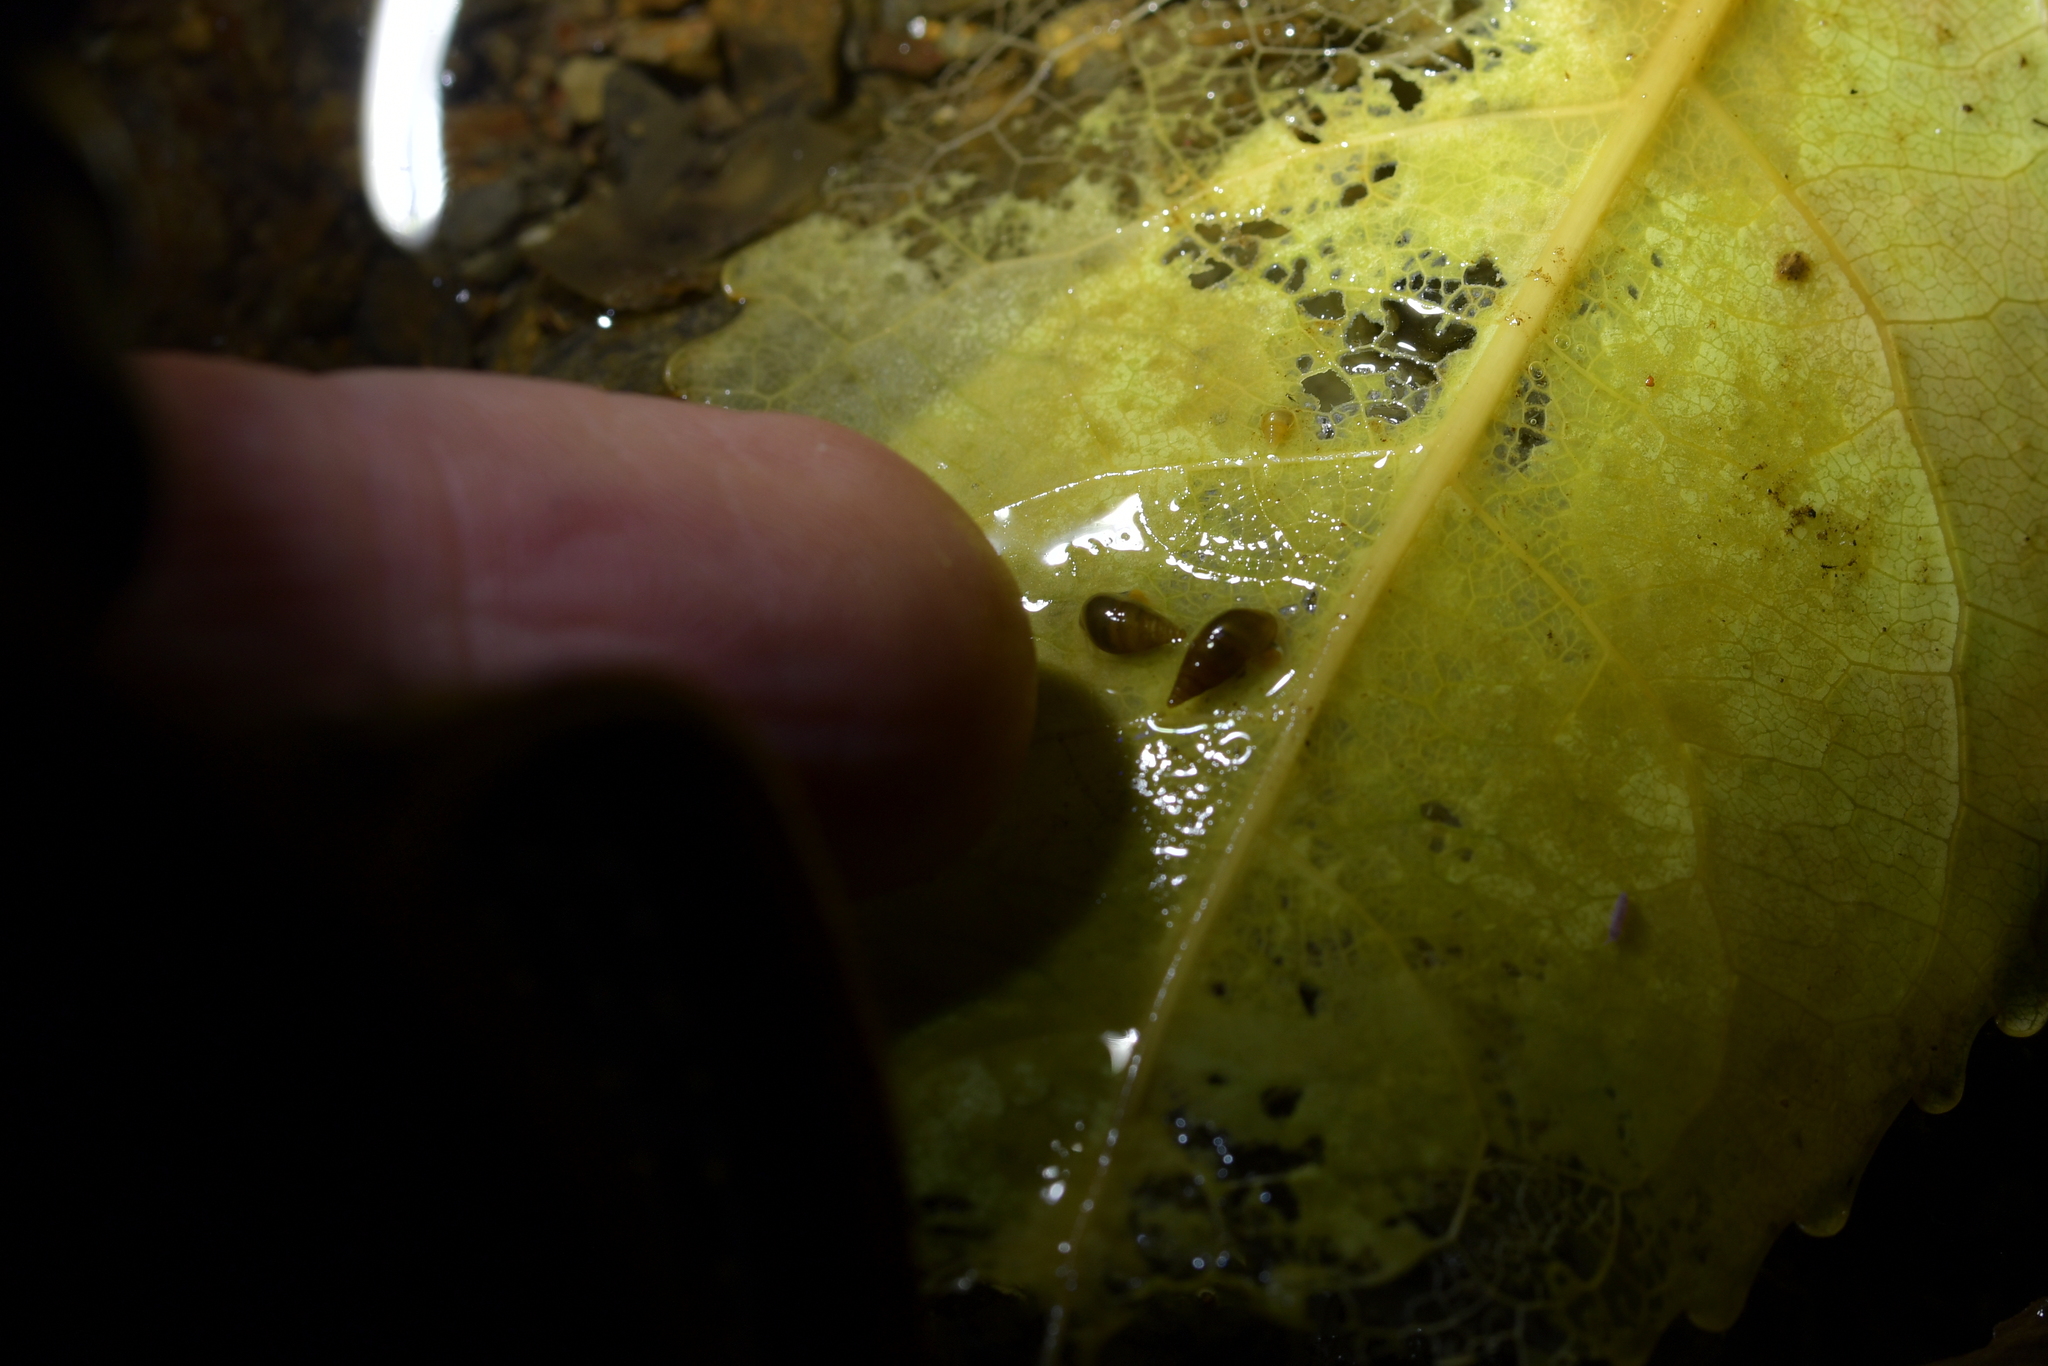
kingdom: Animalia
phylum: Mollusca
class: Gastropoda
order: Littorinimorpha
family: Tateidae
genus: Potamopyrgus
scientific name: Potamopyrgus antipodarum
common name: Jenkins' spire snail
